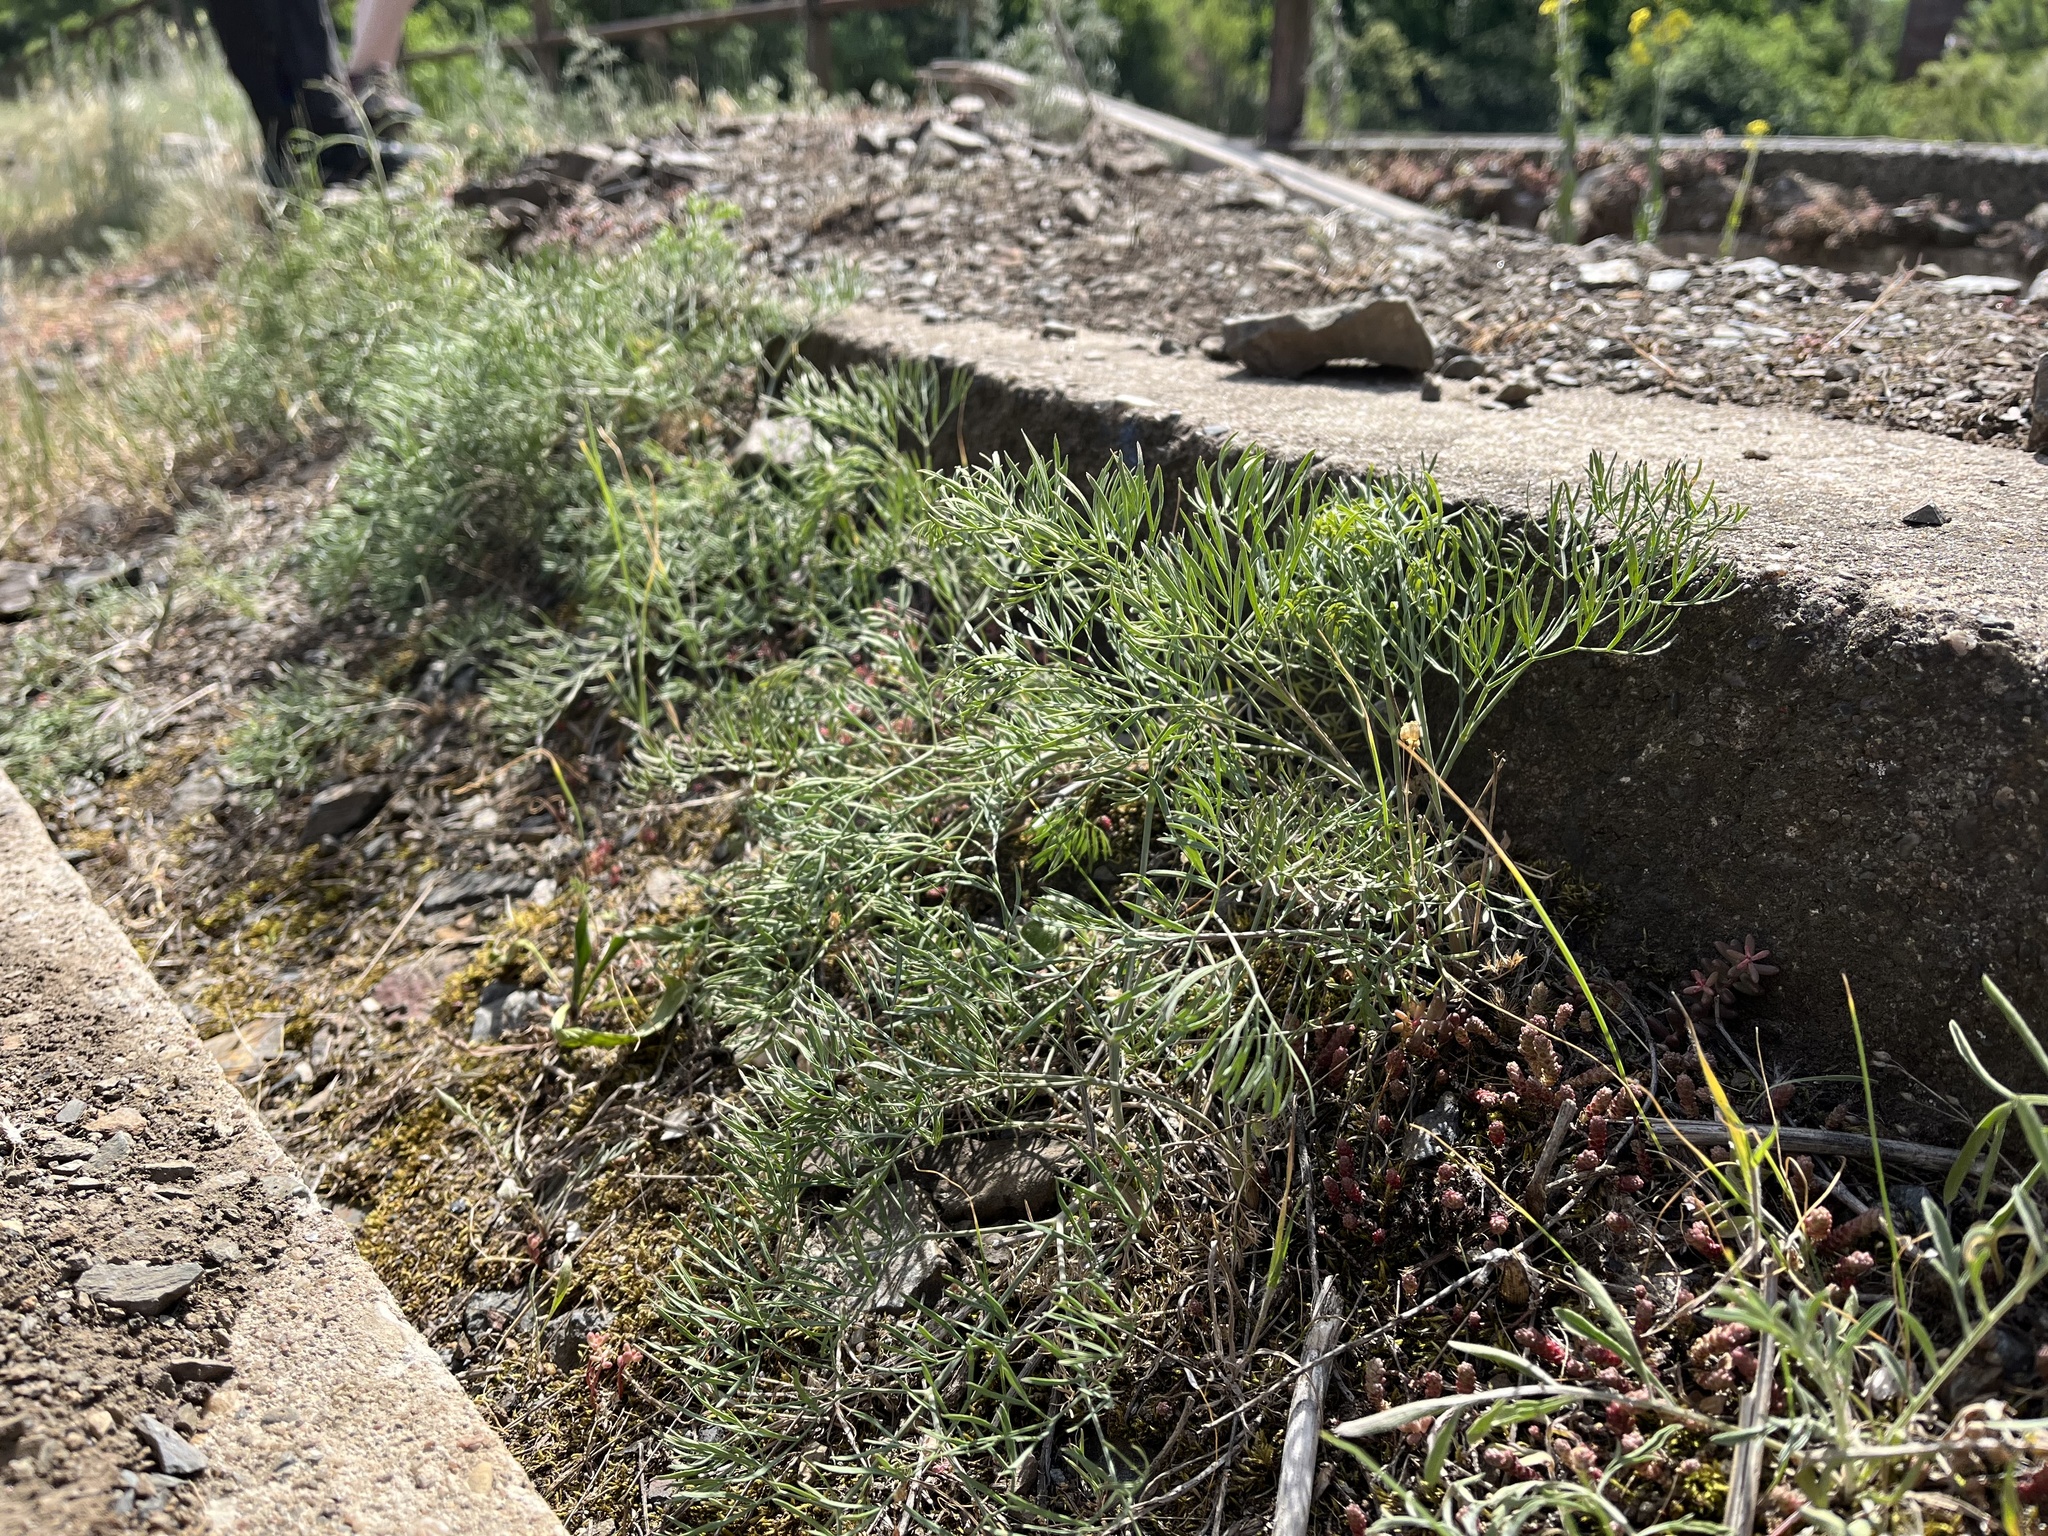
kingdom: Plantae
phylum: Tracheophyta
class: Magnoliopsida
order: Apiales
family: Apiaceae
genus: Seseli
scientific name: Seseli osseum
